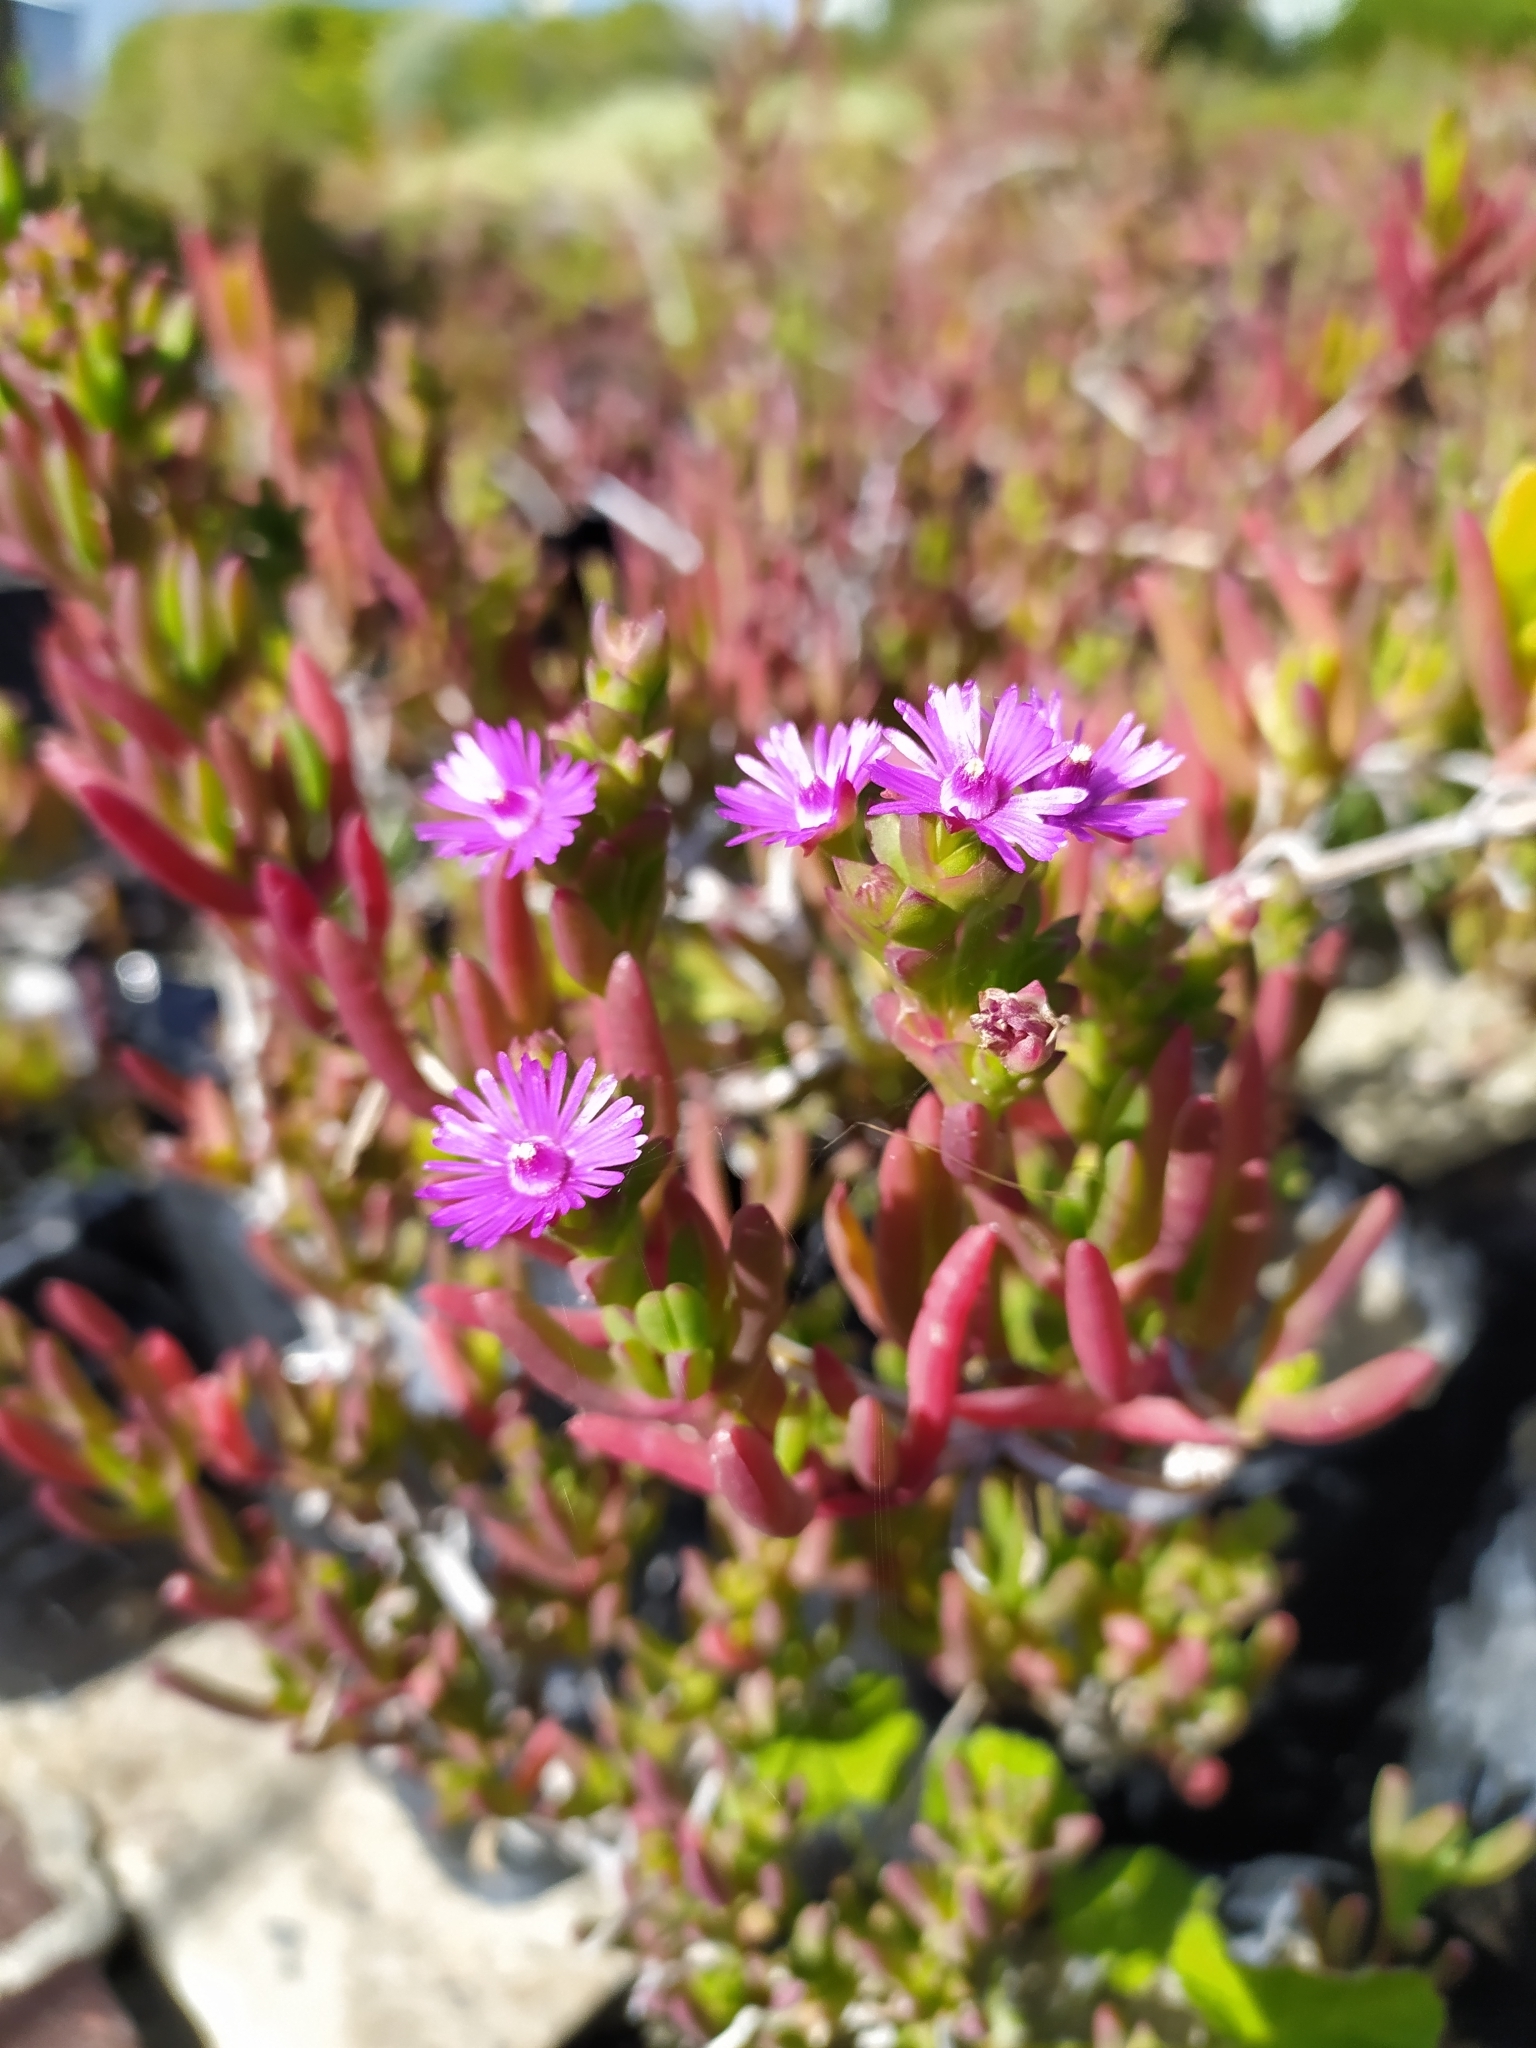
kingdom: Plantae
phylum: Tracheophyta
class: Magnoliopsida
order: Caryophyllales
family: Aizoaceae
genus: Ruschia
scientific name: Ruschia macowanii
